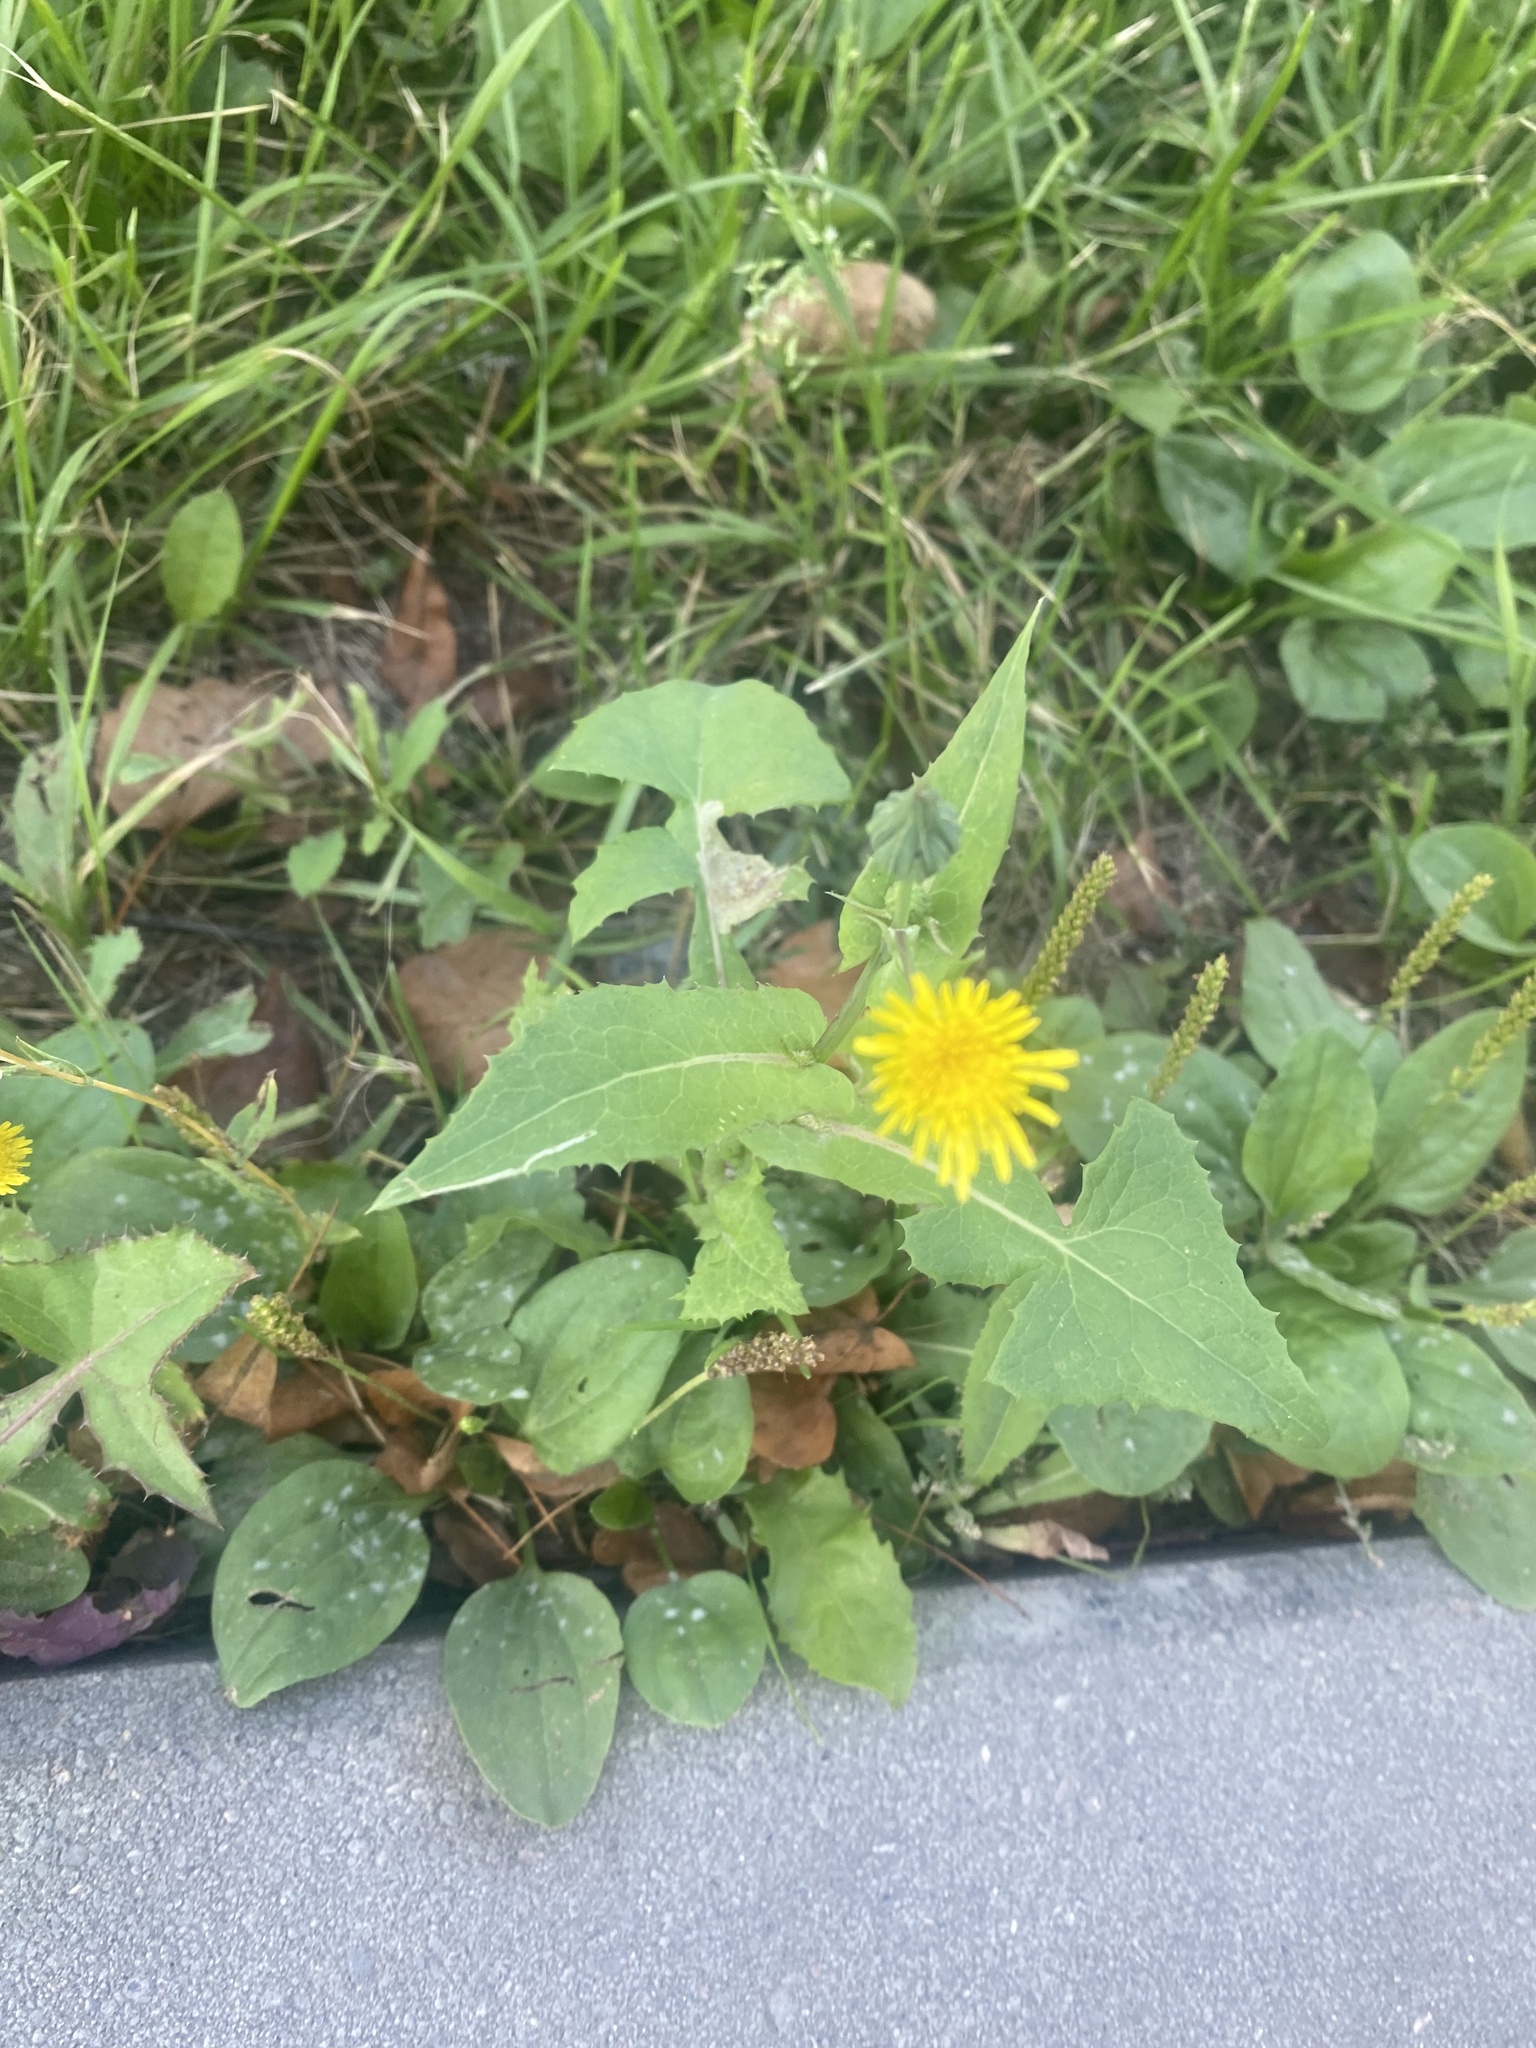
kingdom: Plantae
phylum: Tracheophyta
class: Magnoliopsida
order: Asterales
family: Asteraceae
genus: Sonchus
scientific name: Sonchus oleraceus
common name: Common sowthistle
